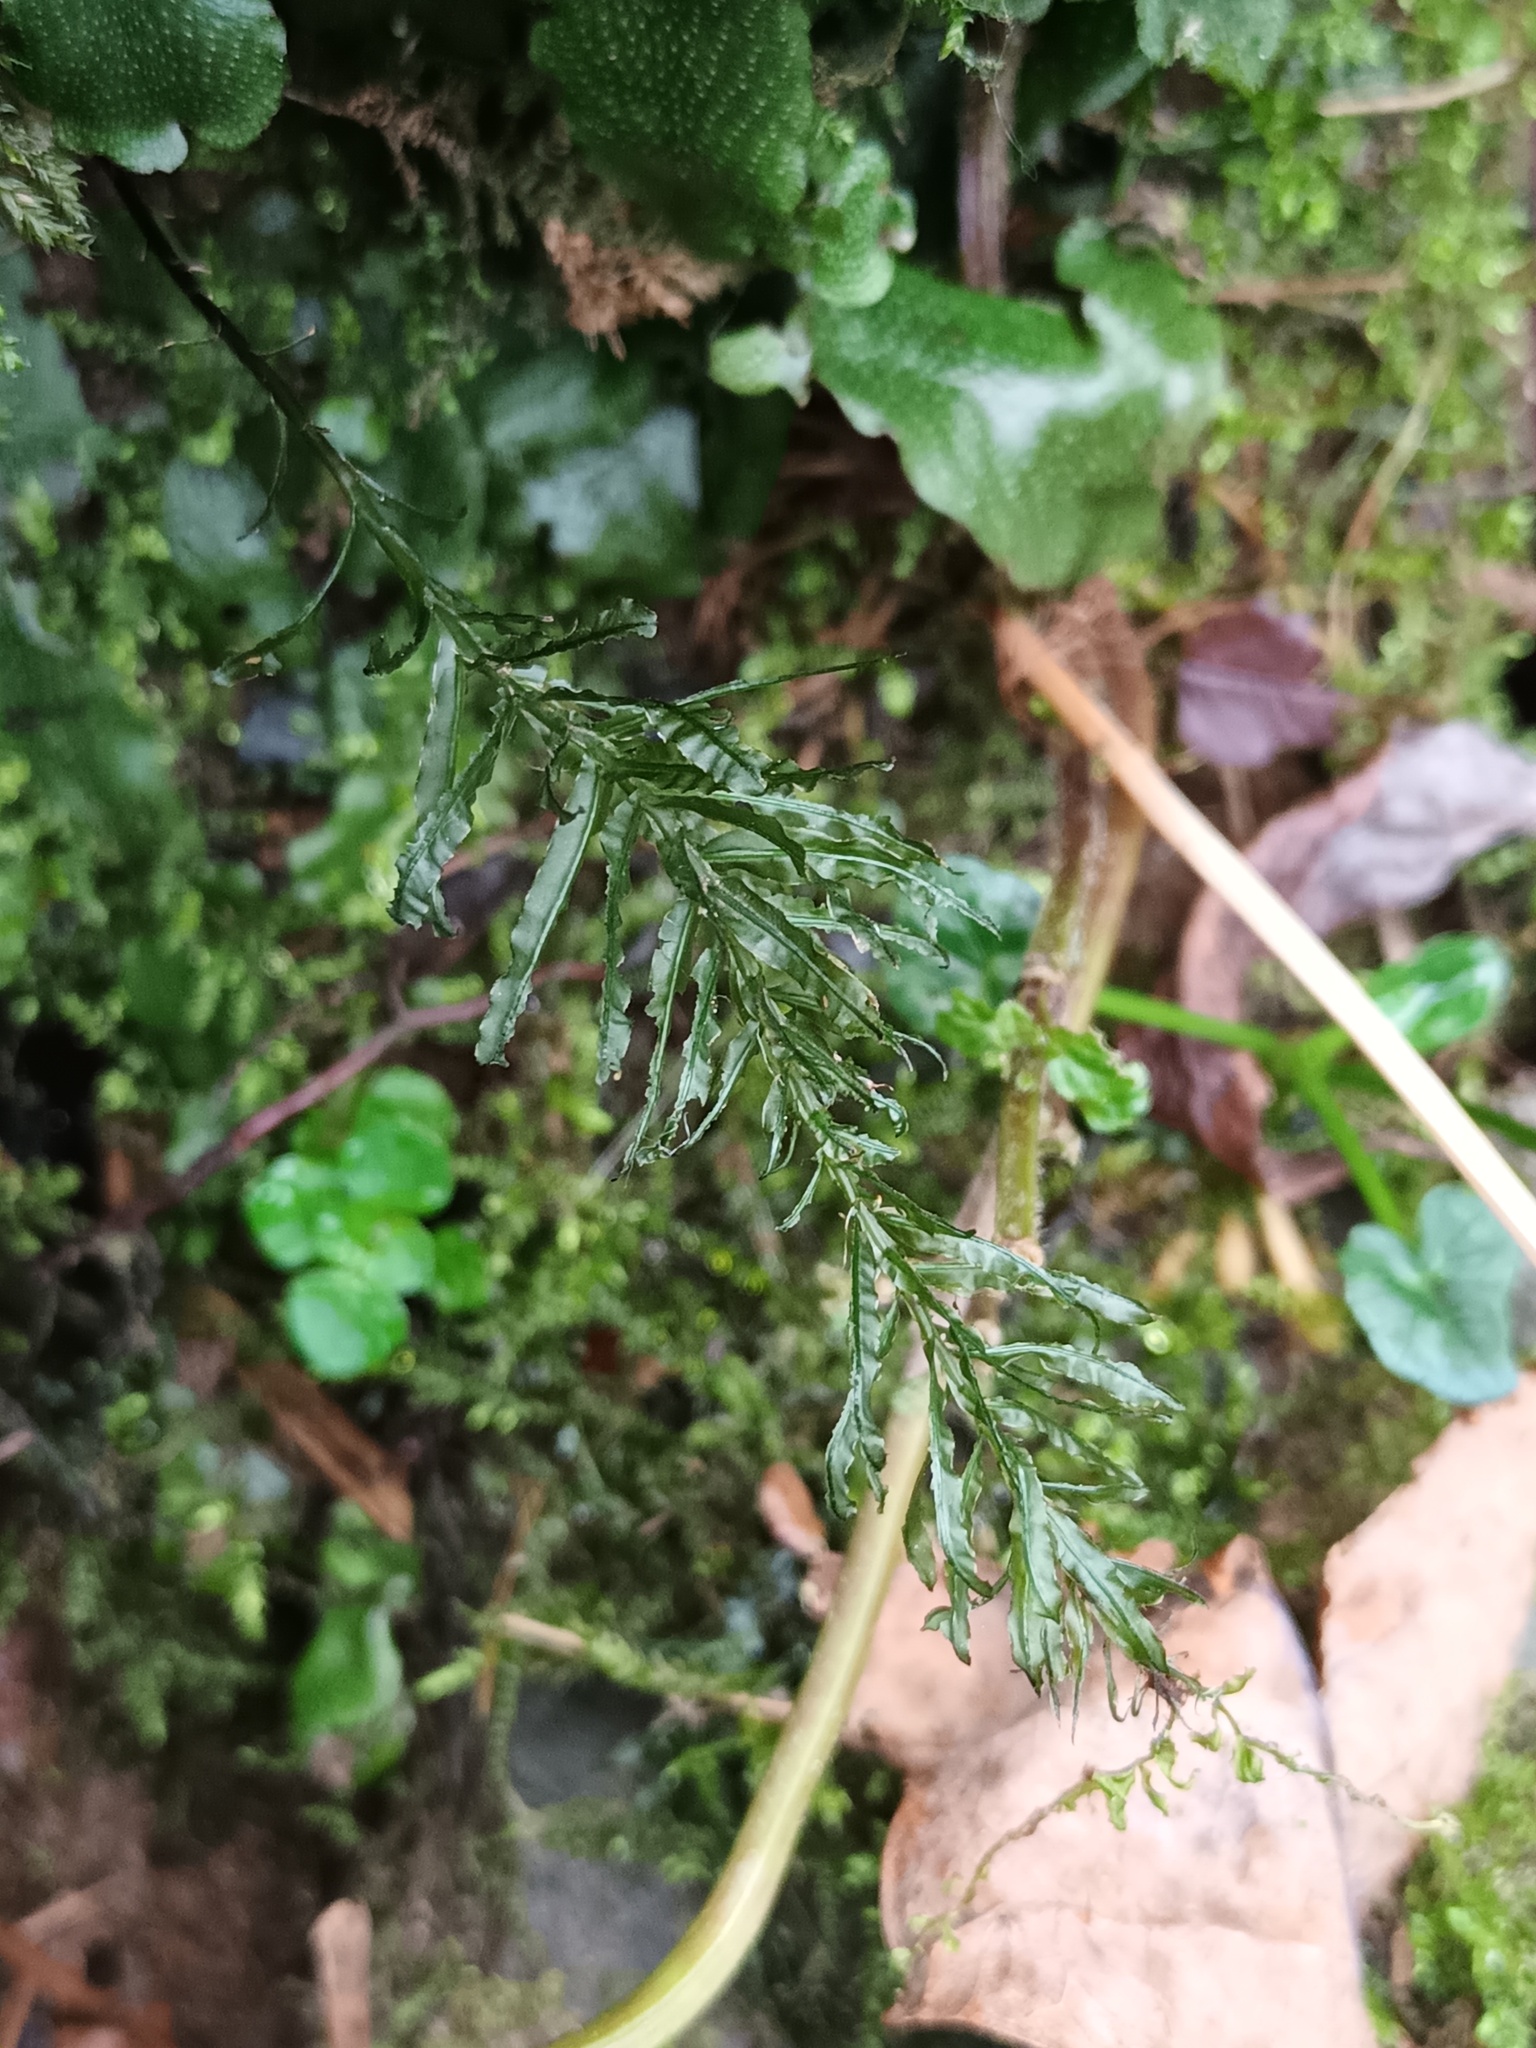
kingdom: Plantae
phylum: Bryophyta
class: Bryopsida
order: Bryales
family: Mniaceae
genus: Plagiomnium
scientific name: Plagiomnium undulatum
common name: Hart's-tongue thyme-moss
